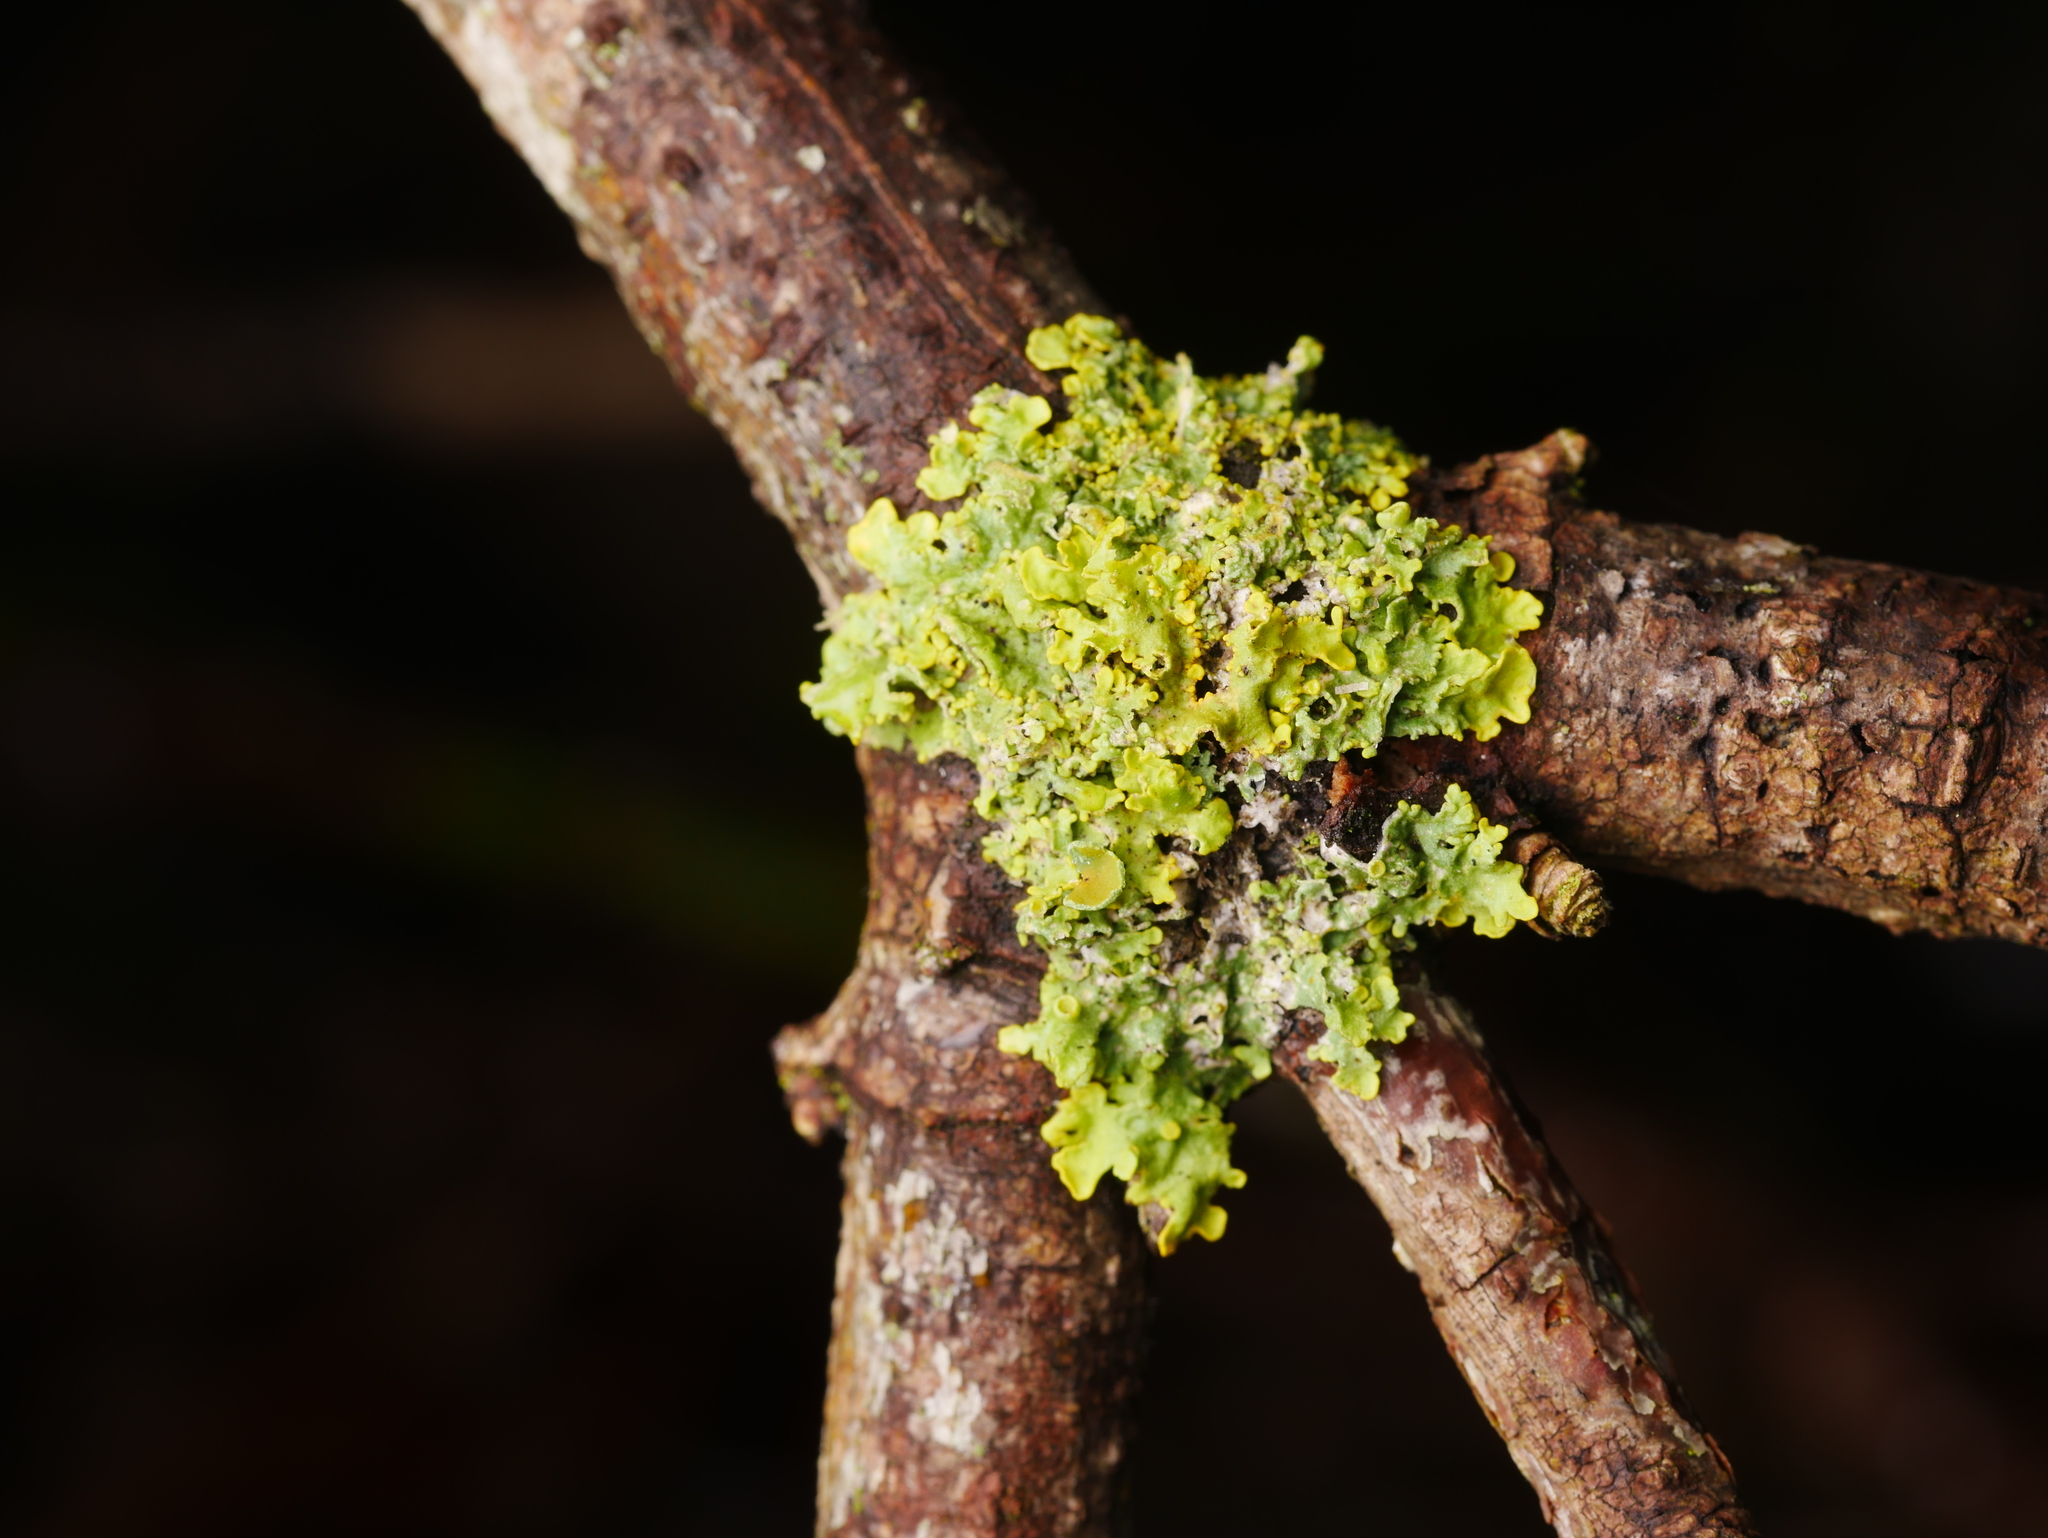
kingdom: Fungi
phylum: Ascomycota
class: Lecanoromycetes
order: Teloschistales
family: Teloschistaceae
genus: Xanthoria
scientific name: Xanthoria parietina
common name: Common orange lichen
